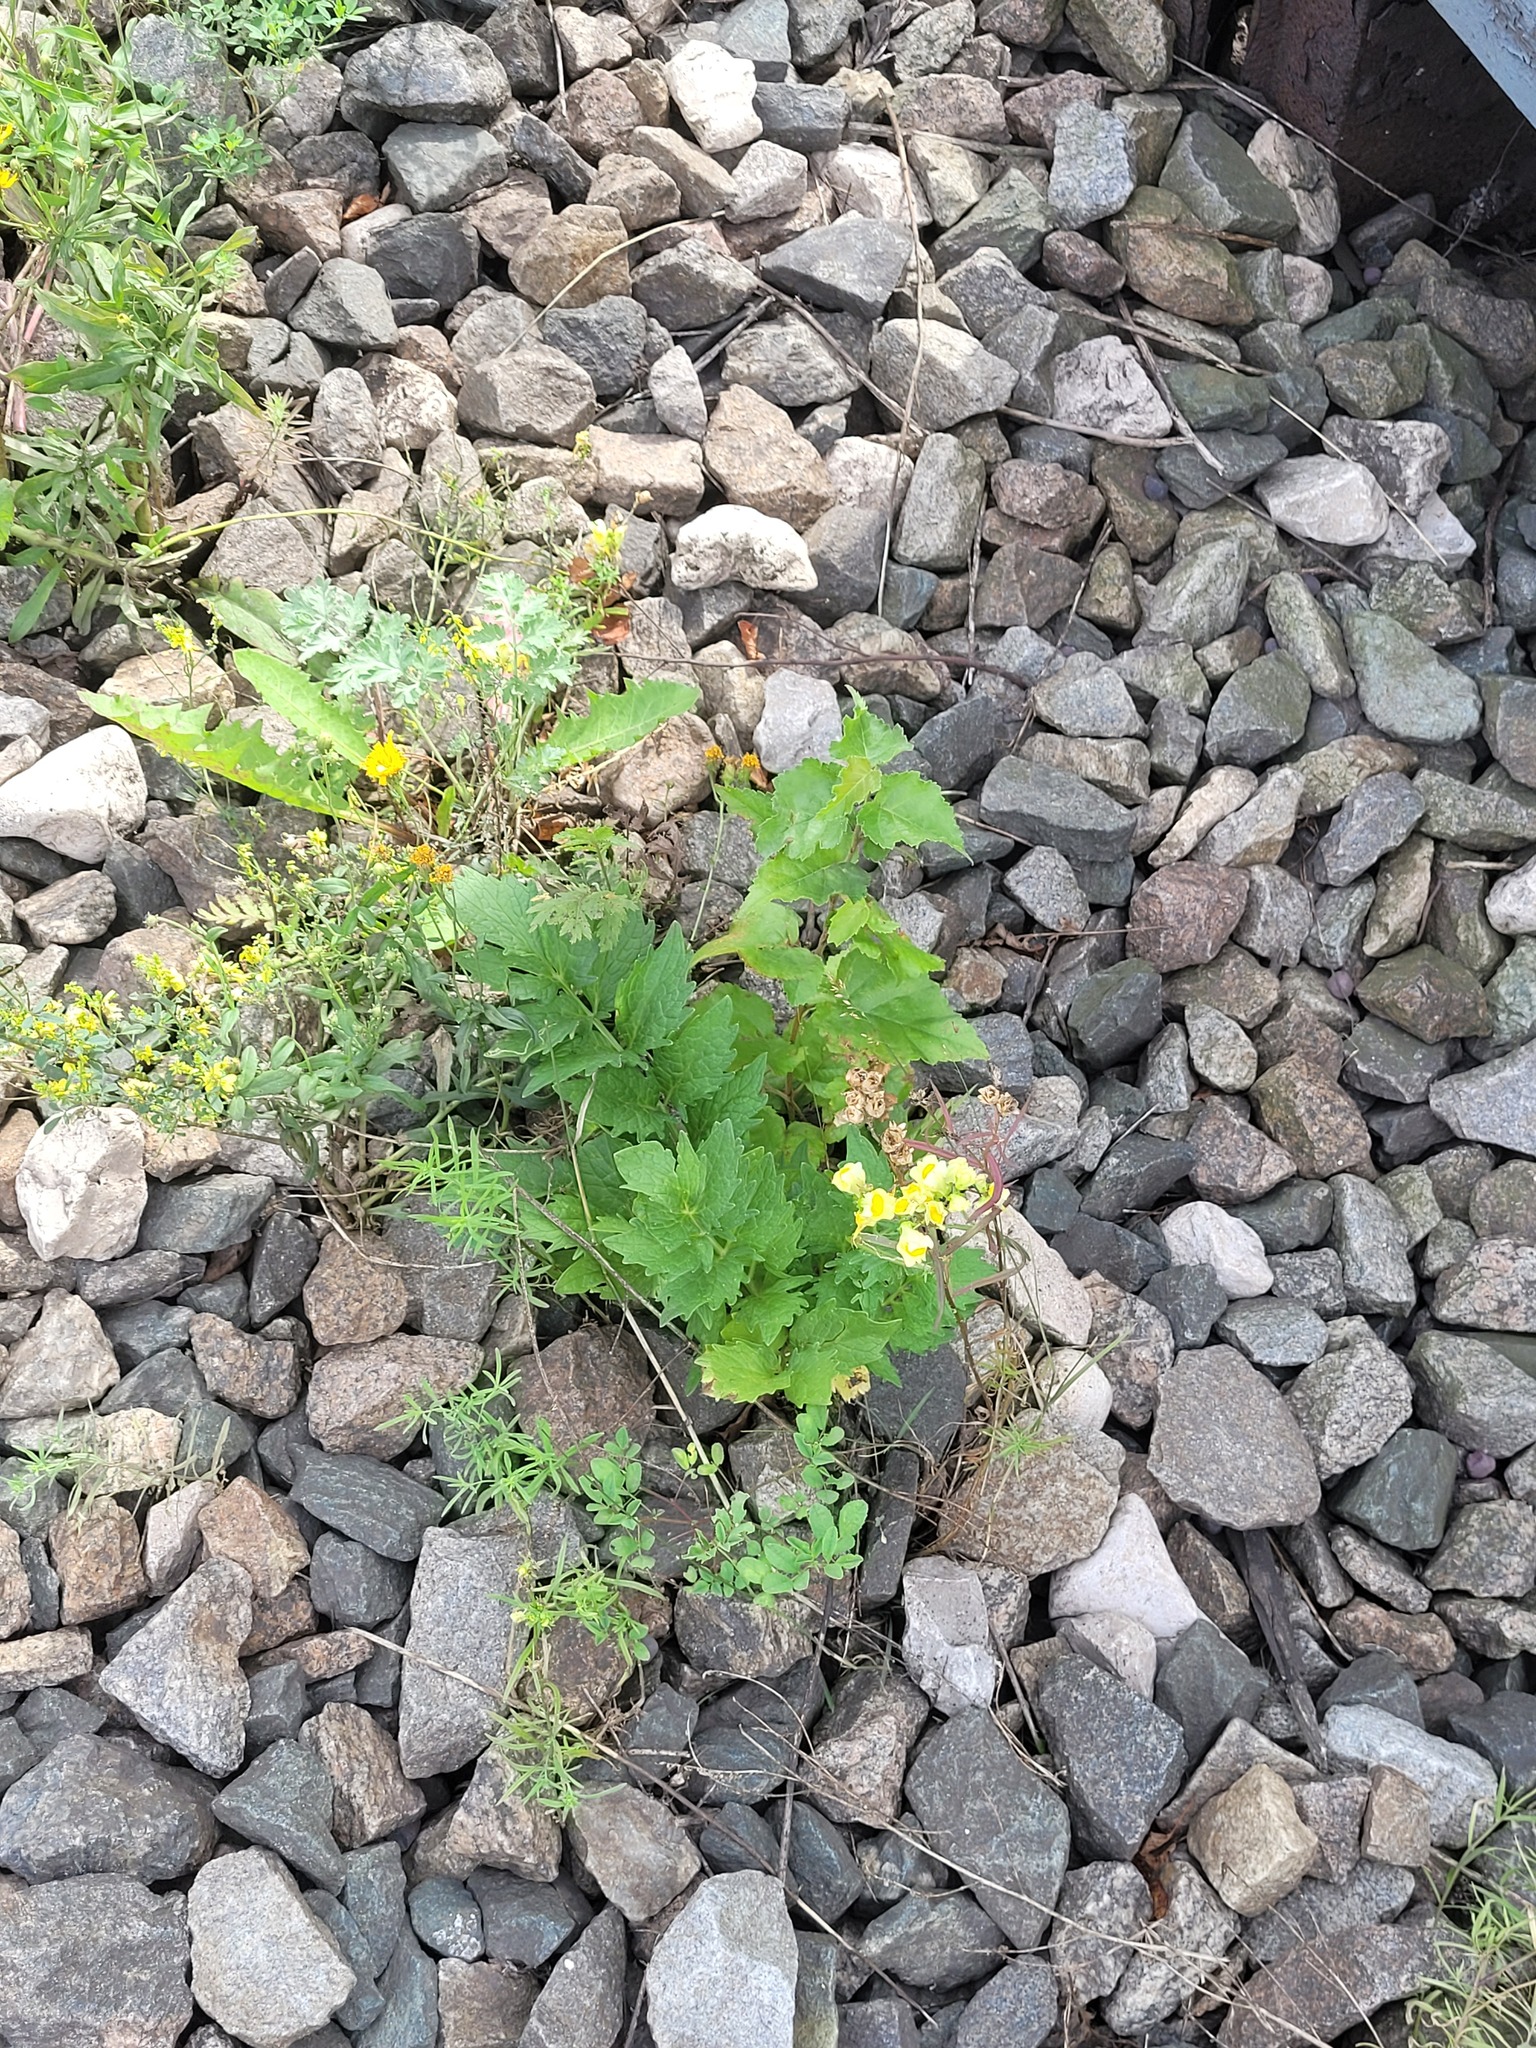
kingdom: Plantae
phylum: Tracheophyta
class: Magnoliopsida
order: Dipsacales
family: Caprifoliaceae
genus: Valeriana
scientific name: Valeriana officinalis
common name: Common valerian
